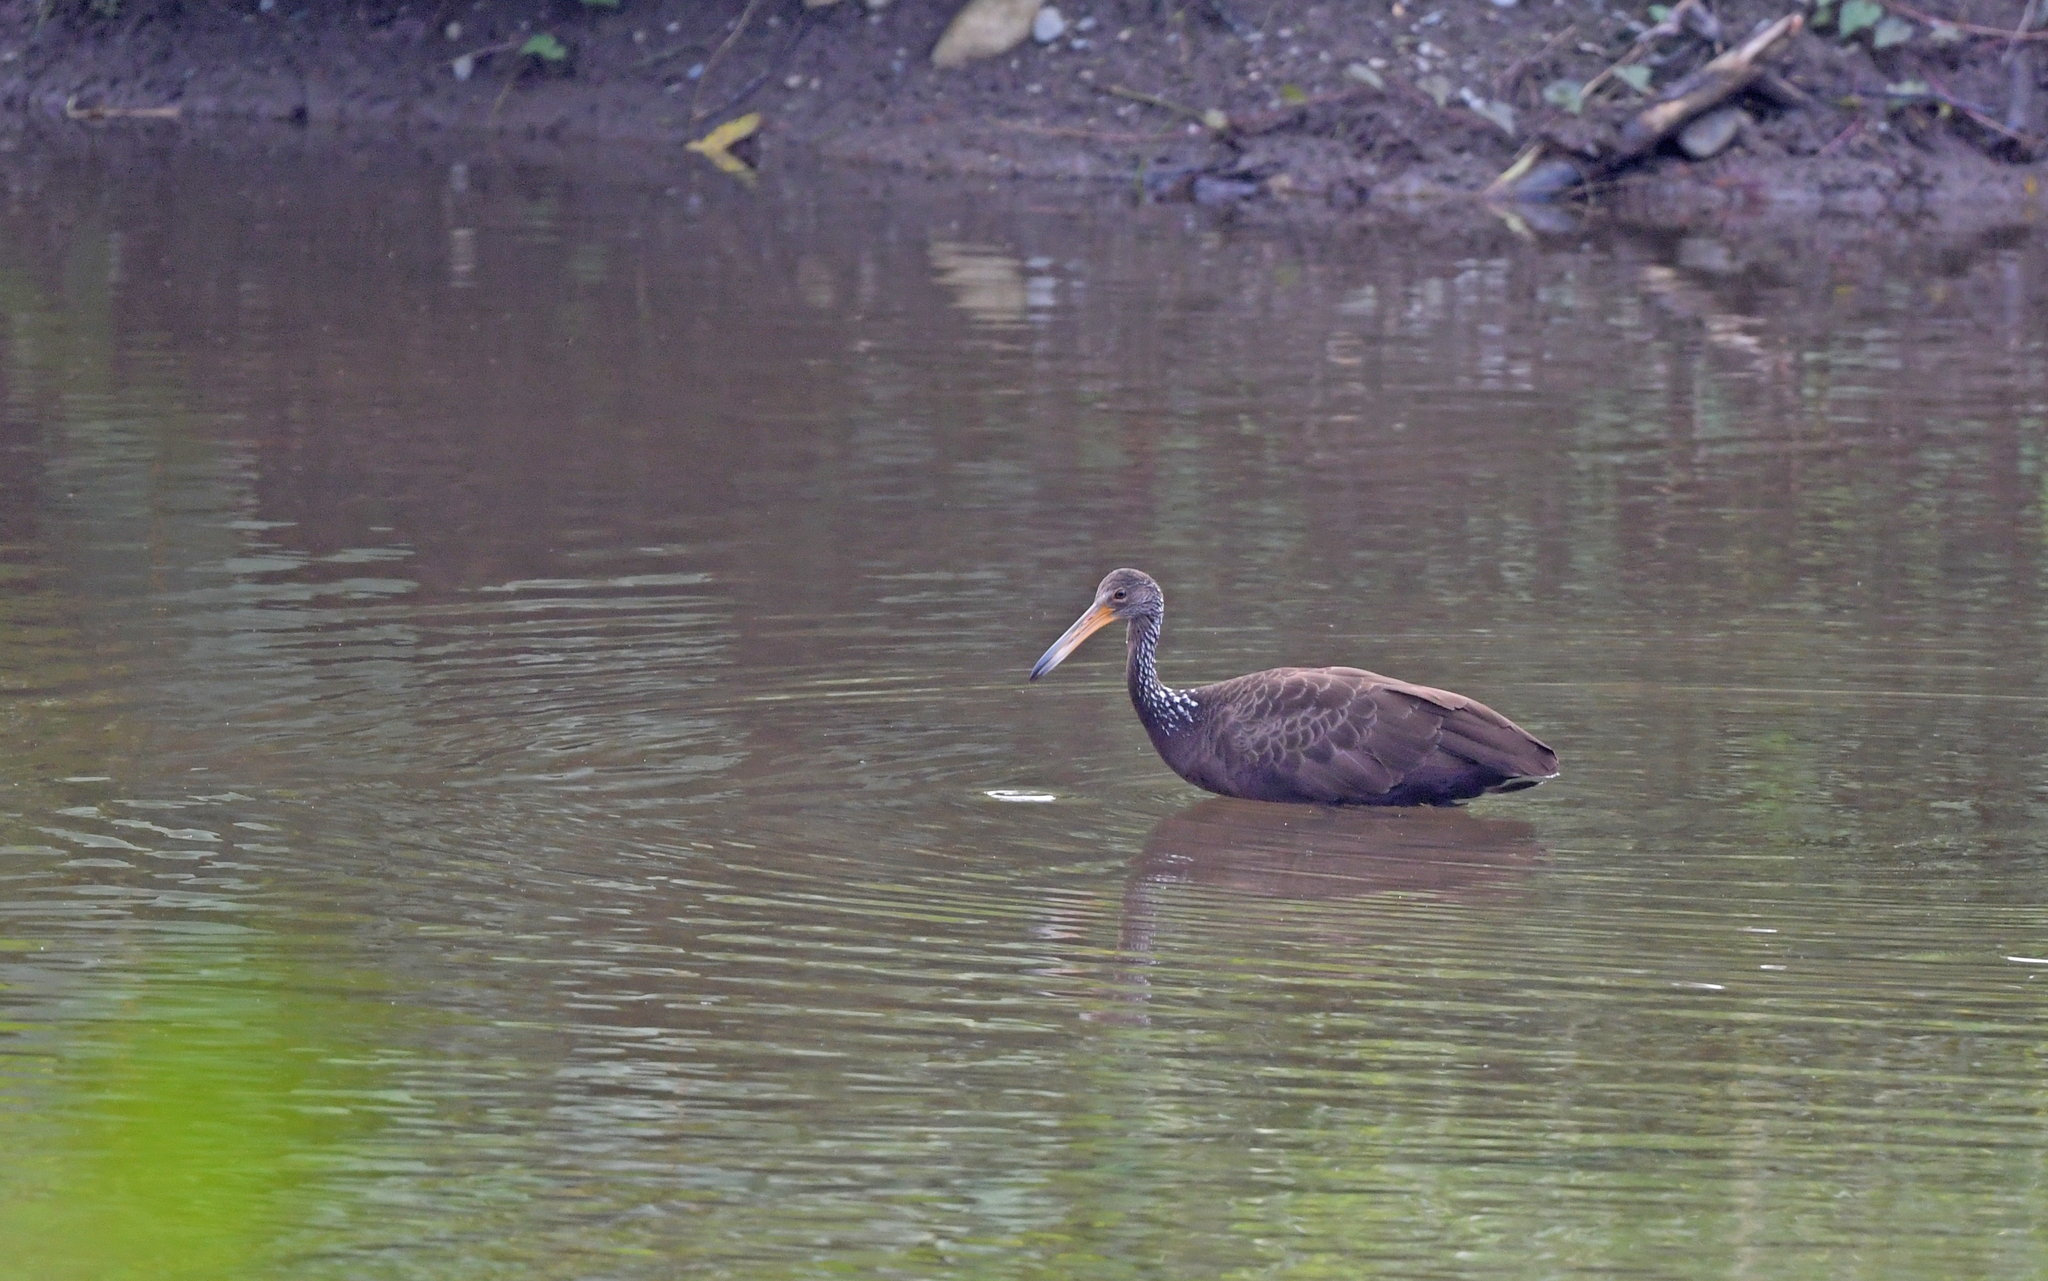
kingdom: Animalia
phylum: Chordata
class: Aves
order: Gruiformes
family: Aramidae
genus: Aramus
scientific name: Aramus guarauna
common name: Limpkin
